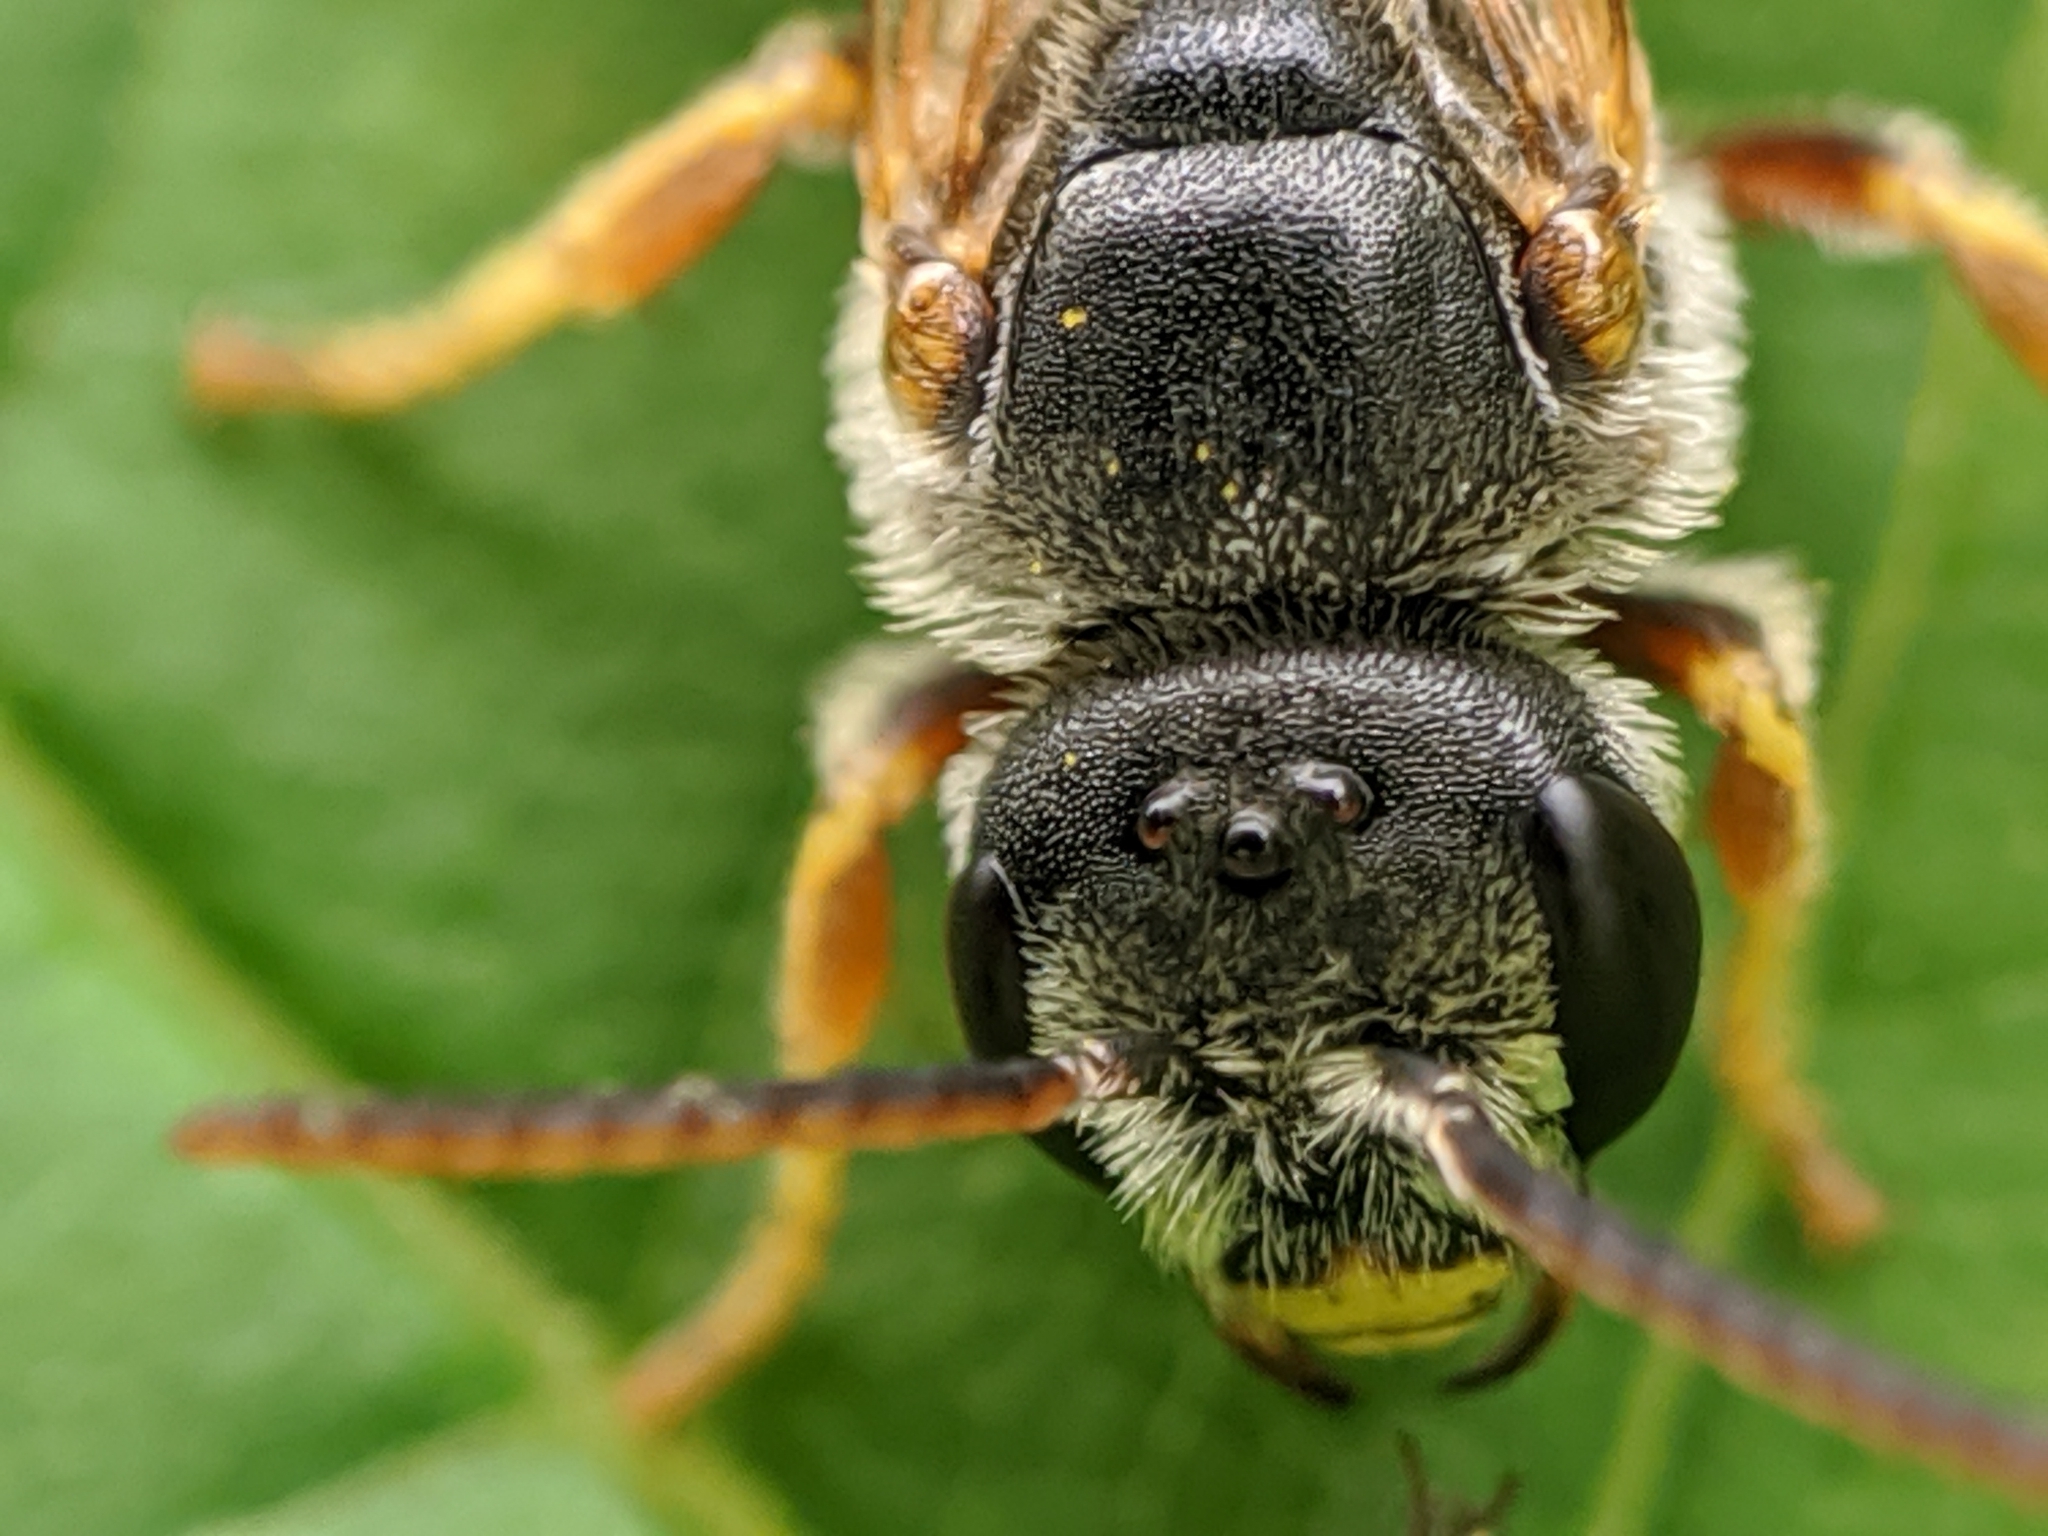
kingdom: Animalia
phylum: Arthropoda
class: Insecta
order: Hymenoptera
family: Halictidae
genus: Halictus
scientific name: Halictus ligatus
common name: Ligated furrow bee
